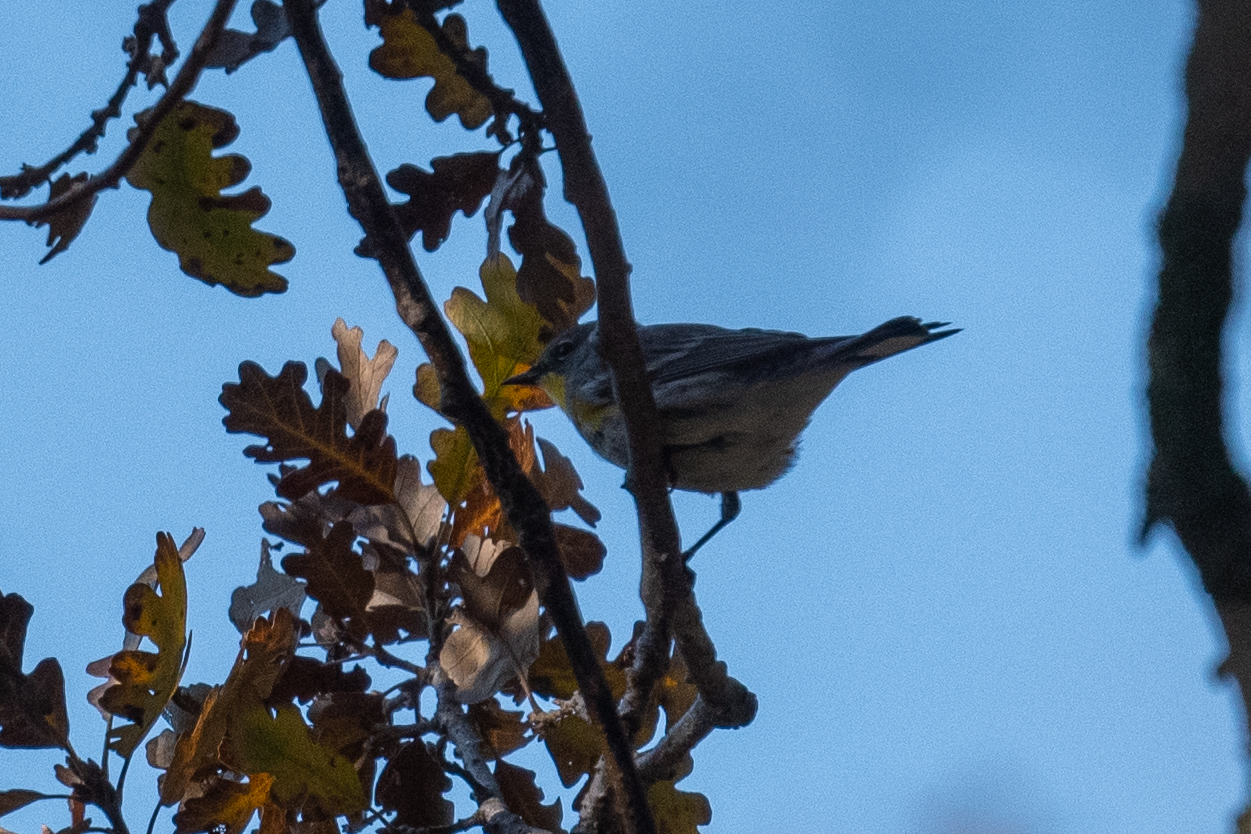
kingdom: Animalia
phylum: Chordata
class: Aves
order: Passeriformes
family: Parulidae
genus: Setophaga
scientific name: Setophaga coronata
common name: Myrtle warbler
